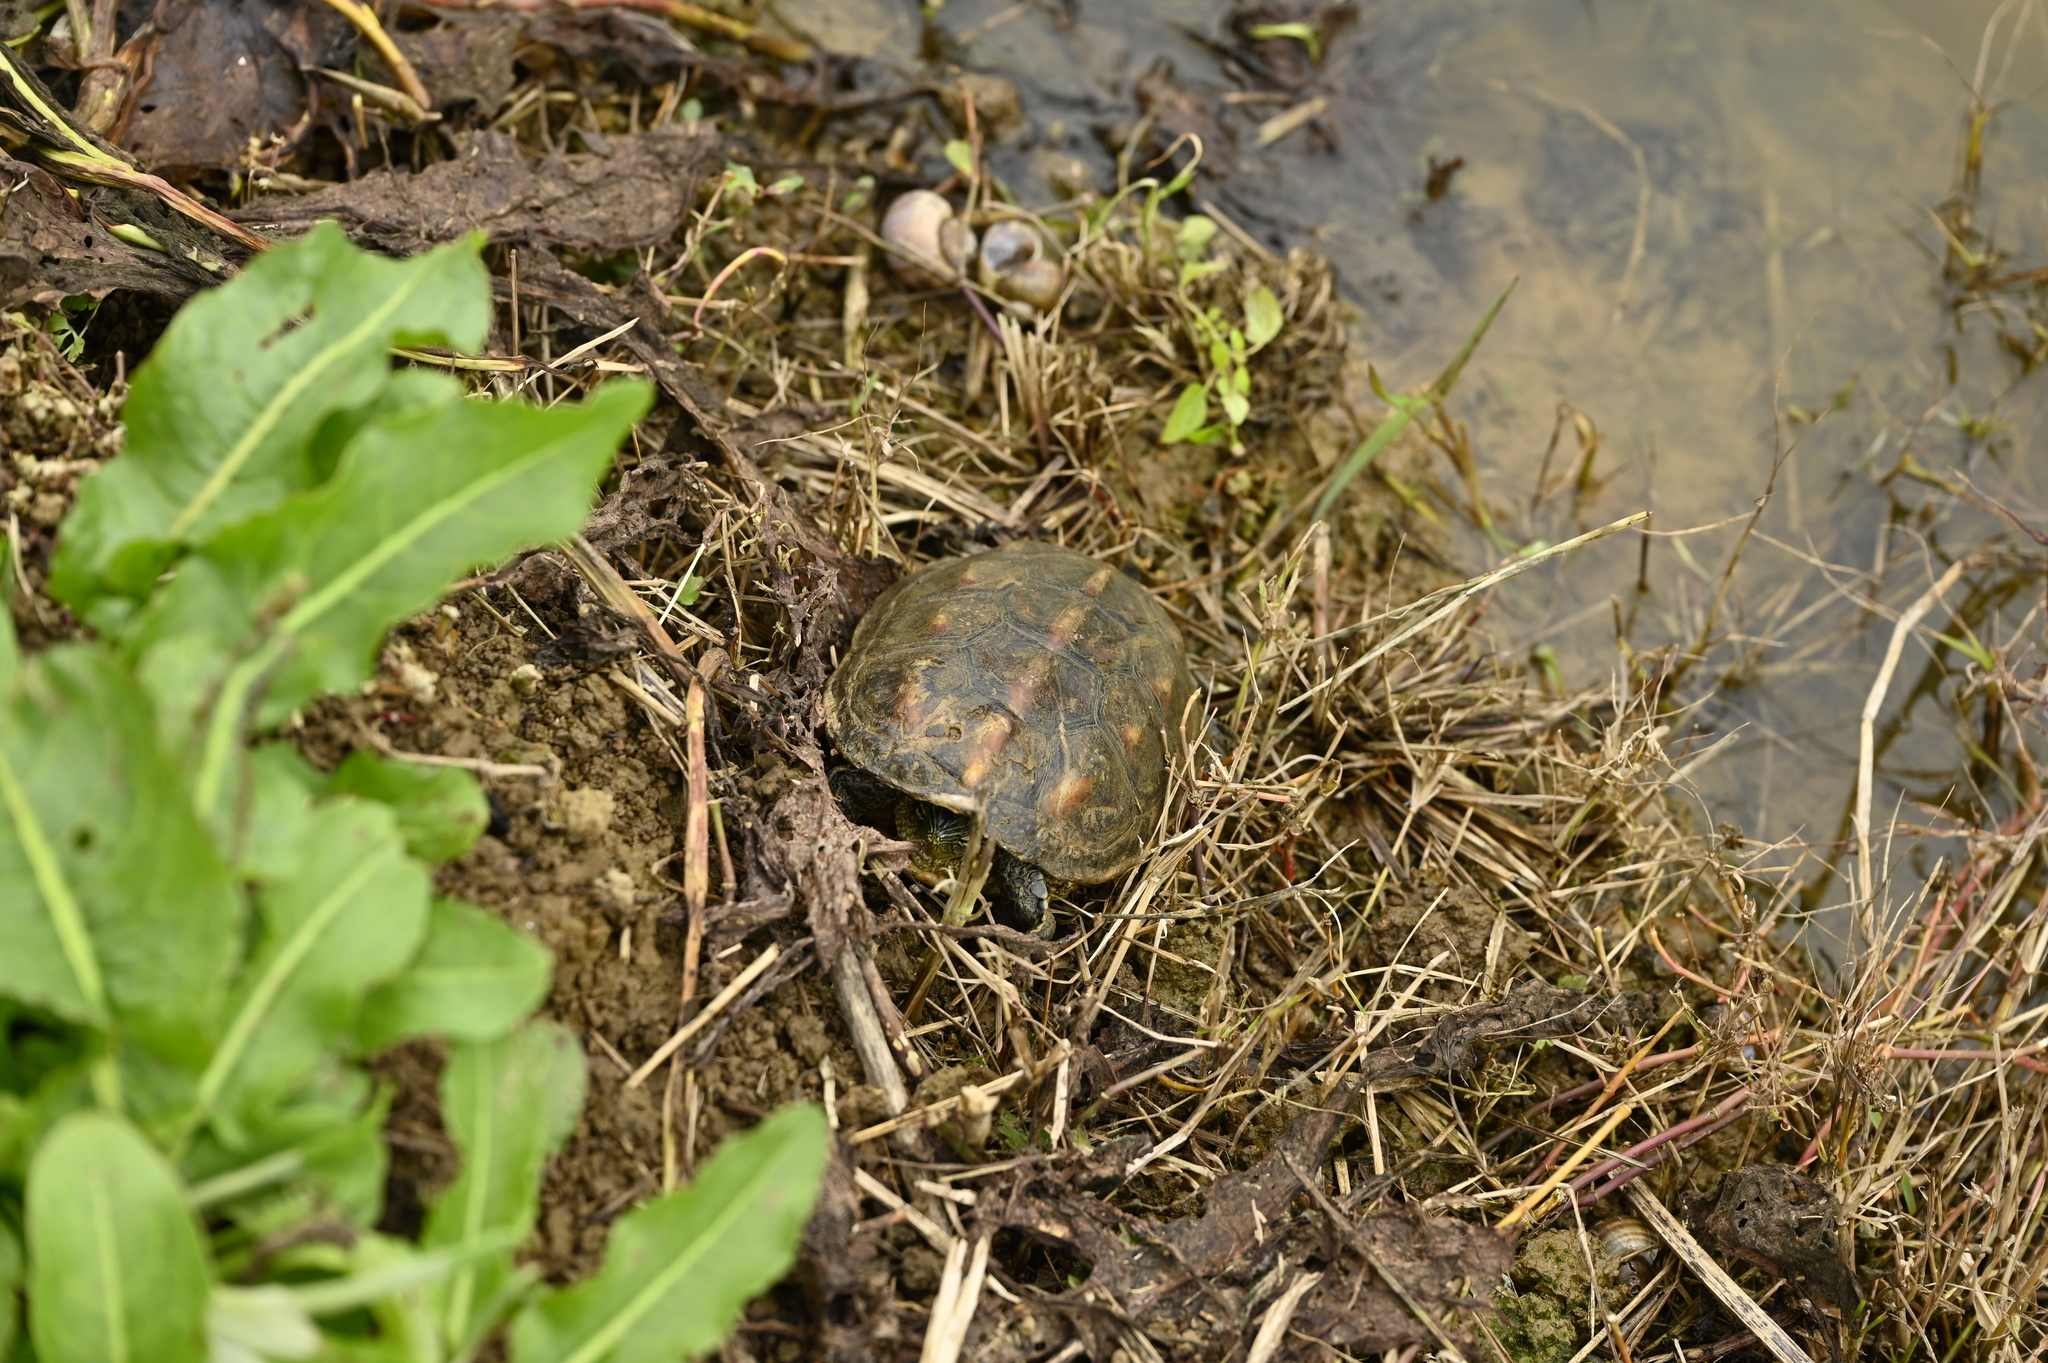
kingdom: Animalia
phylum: Chordata
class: Testudines
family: Geoemydidae
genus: Mauremys
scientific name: Mauremys sinensis
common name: Chinese stripe-necked turtle
